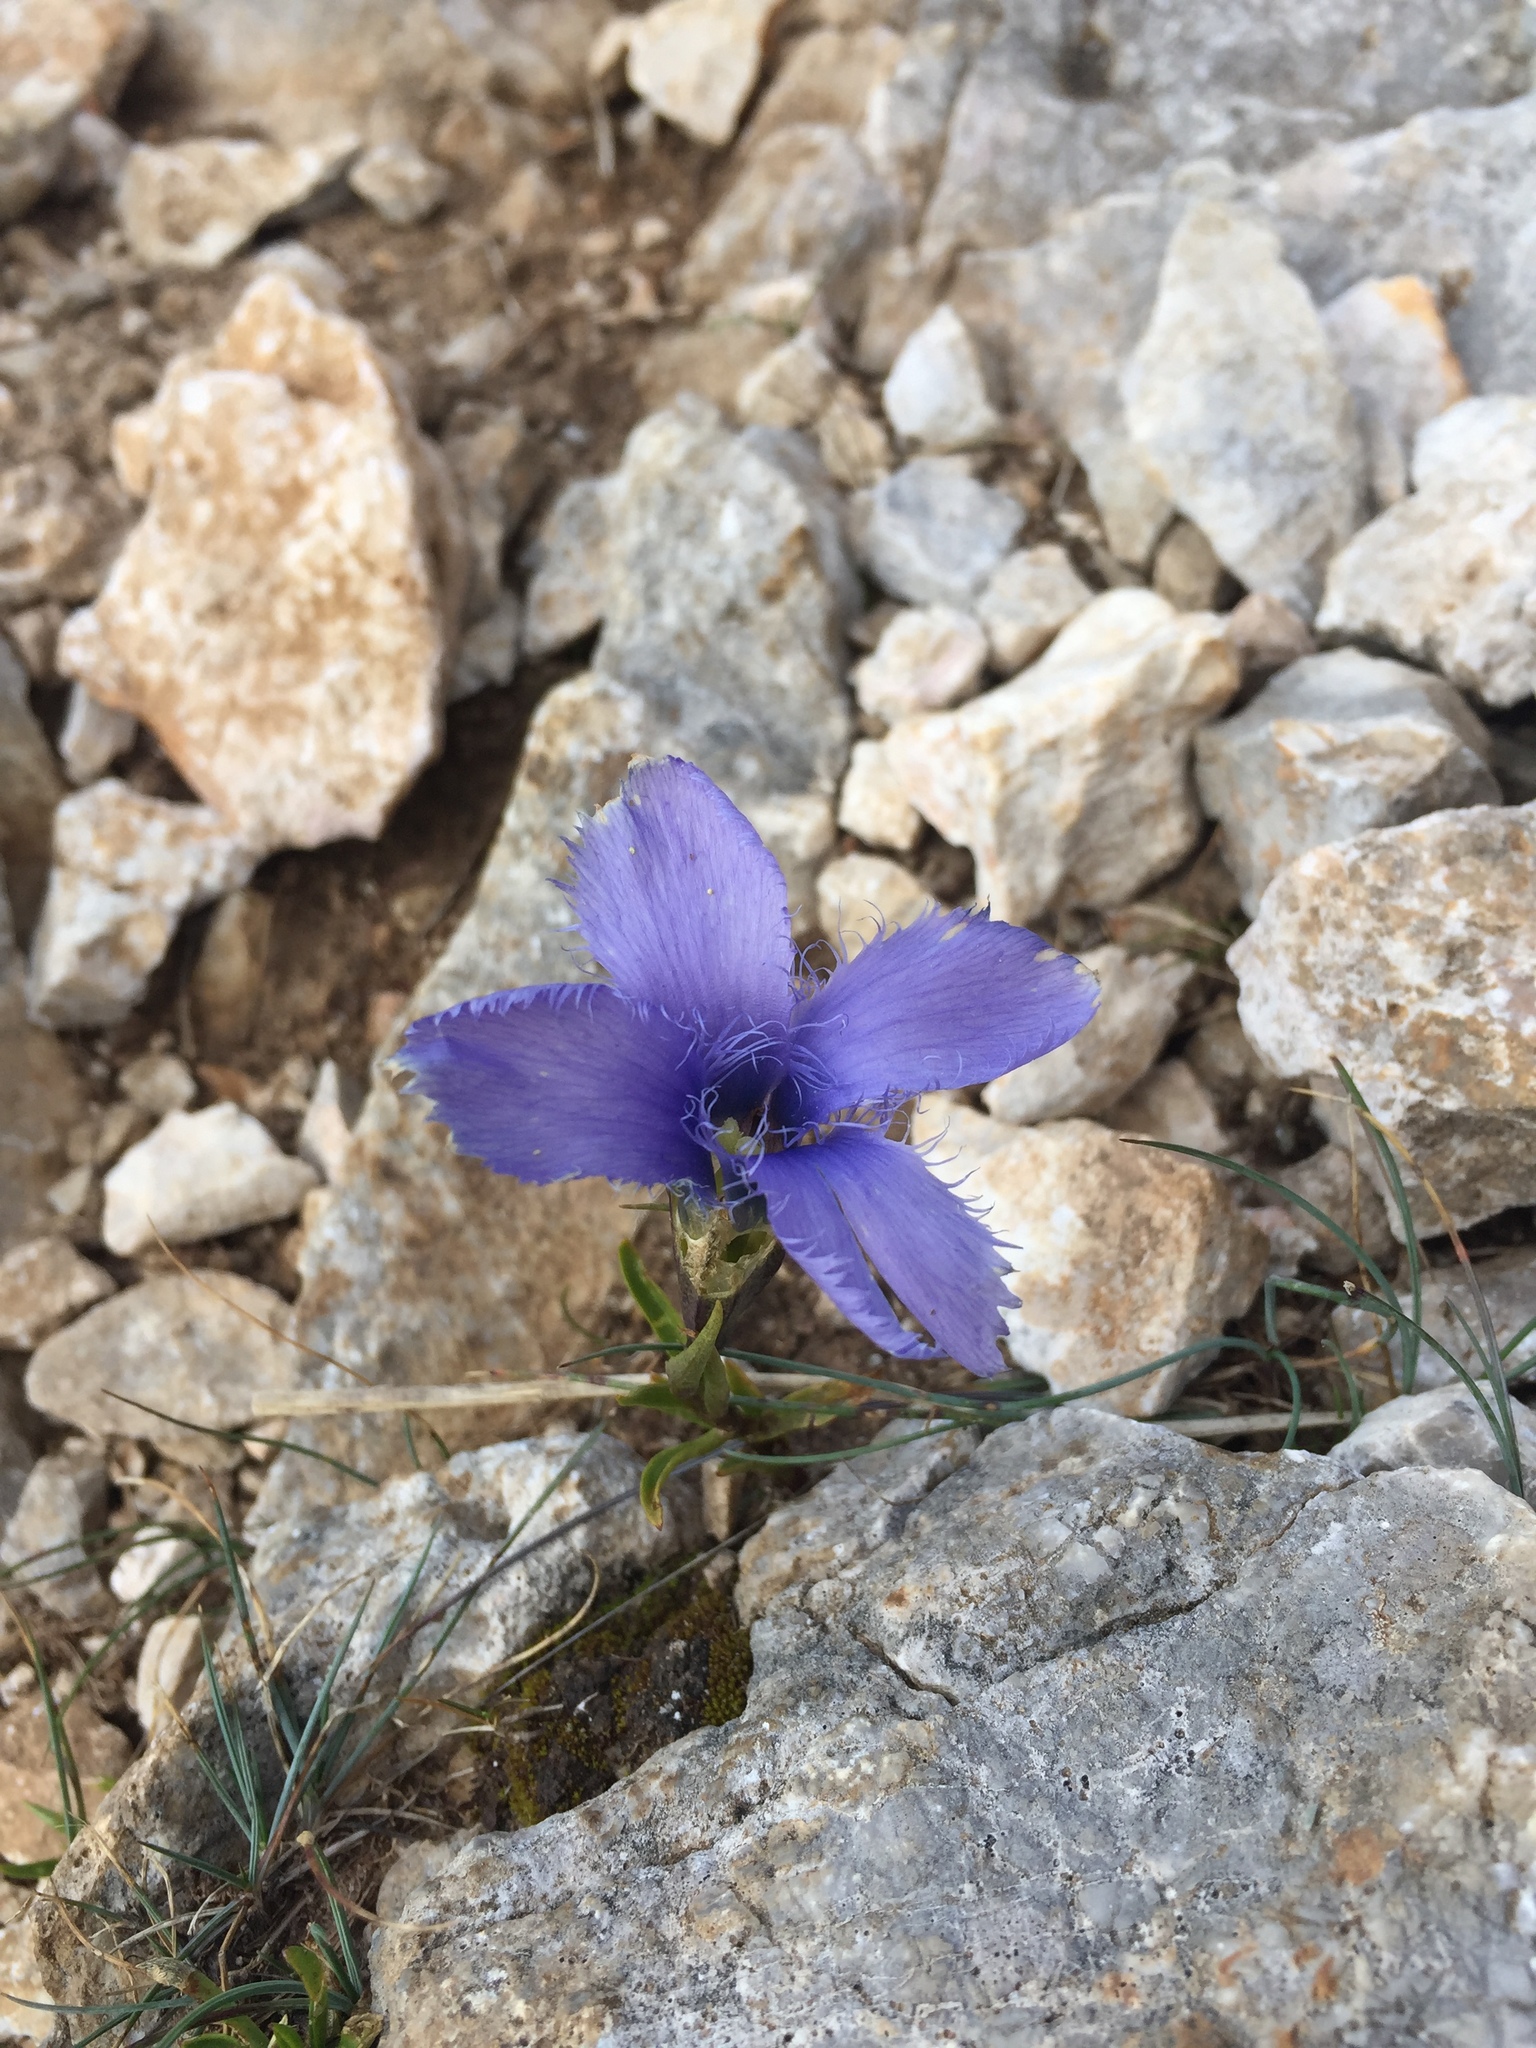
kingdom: Plantae
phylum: Tracheophyta
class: Magnoliopsida
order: Gentianales
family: Gentianaceae
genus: Gentianopsis
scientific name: Gentianopsis ciliata
